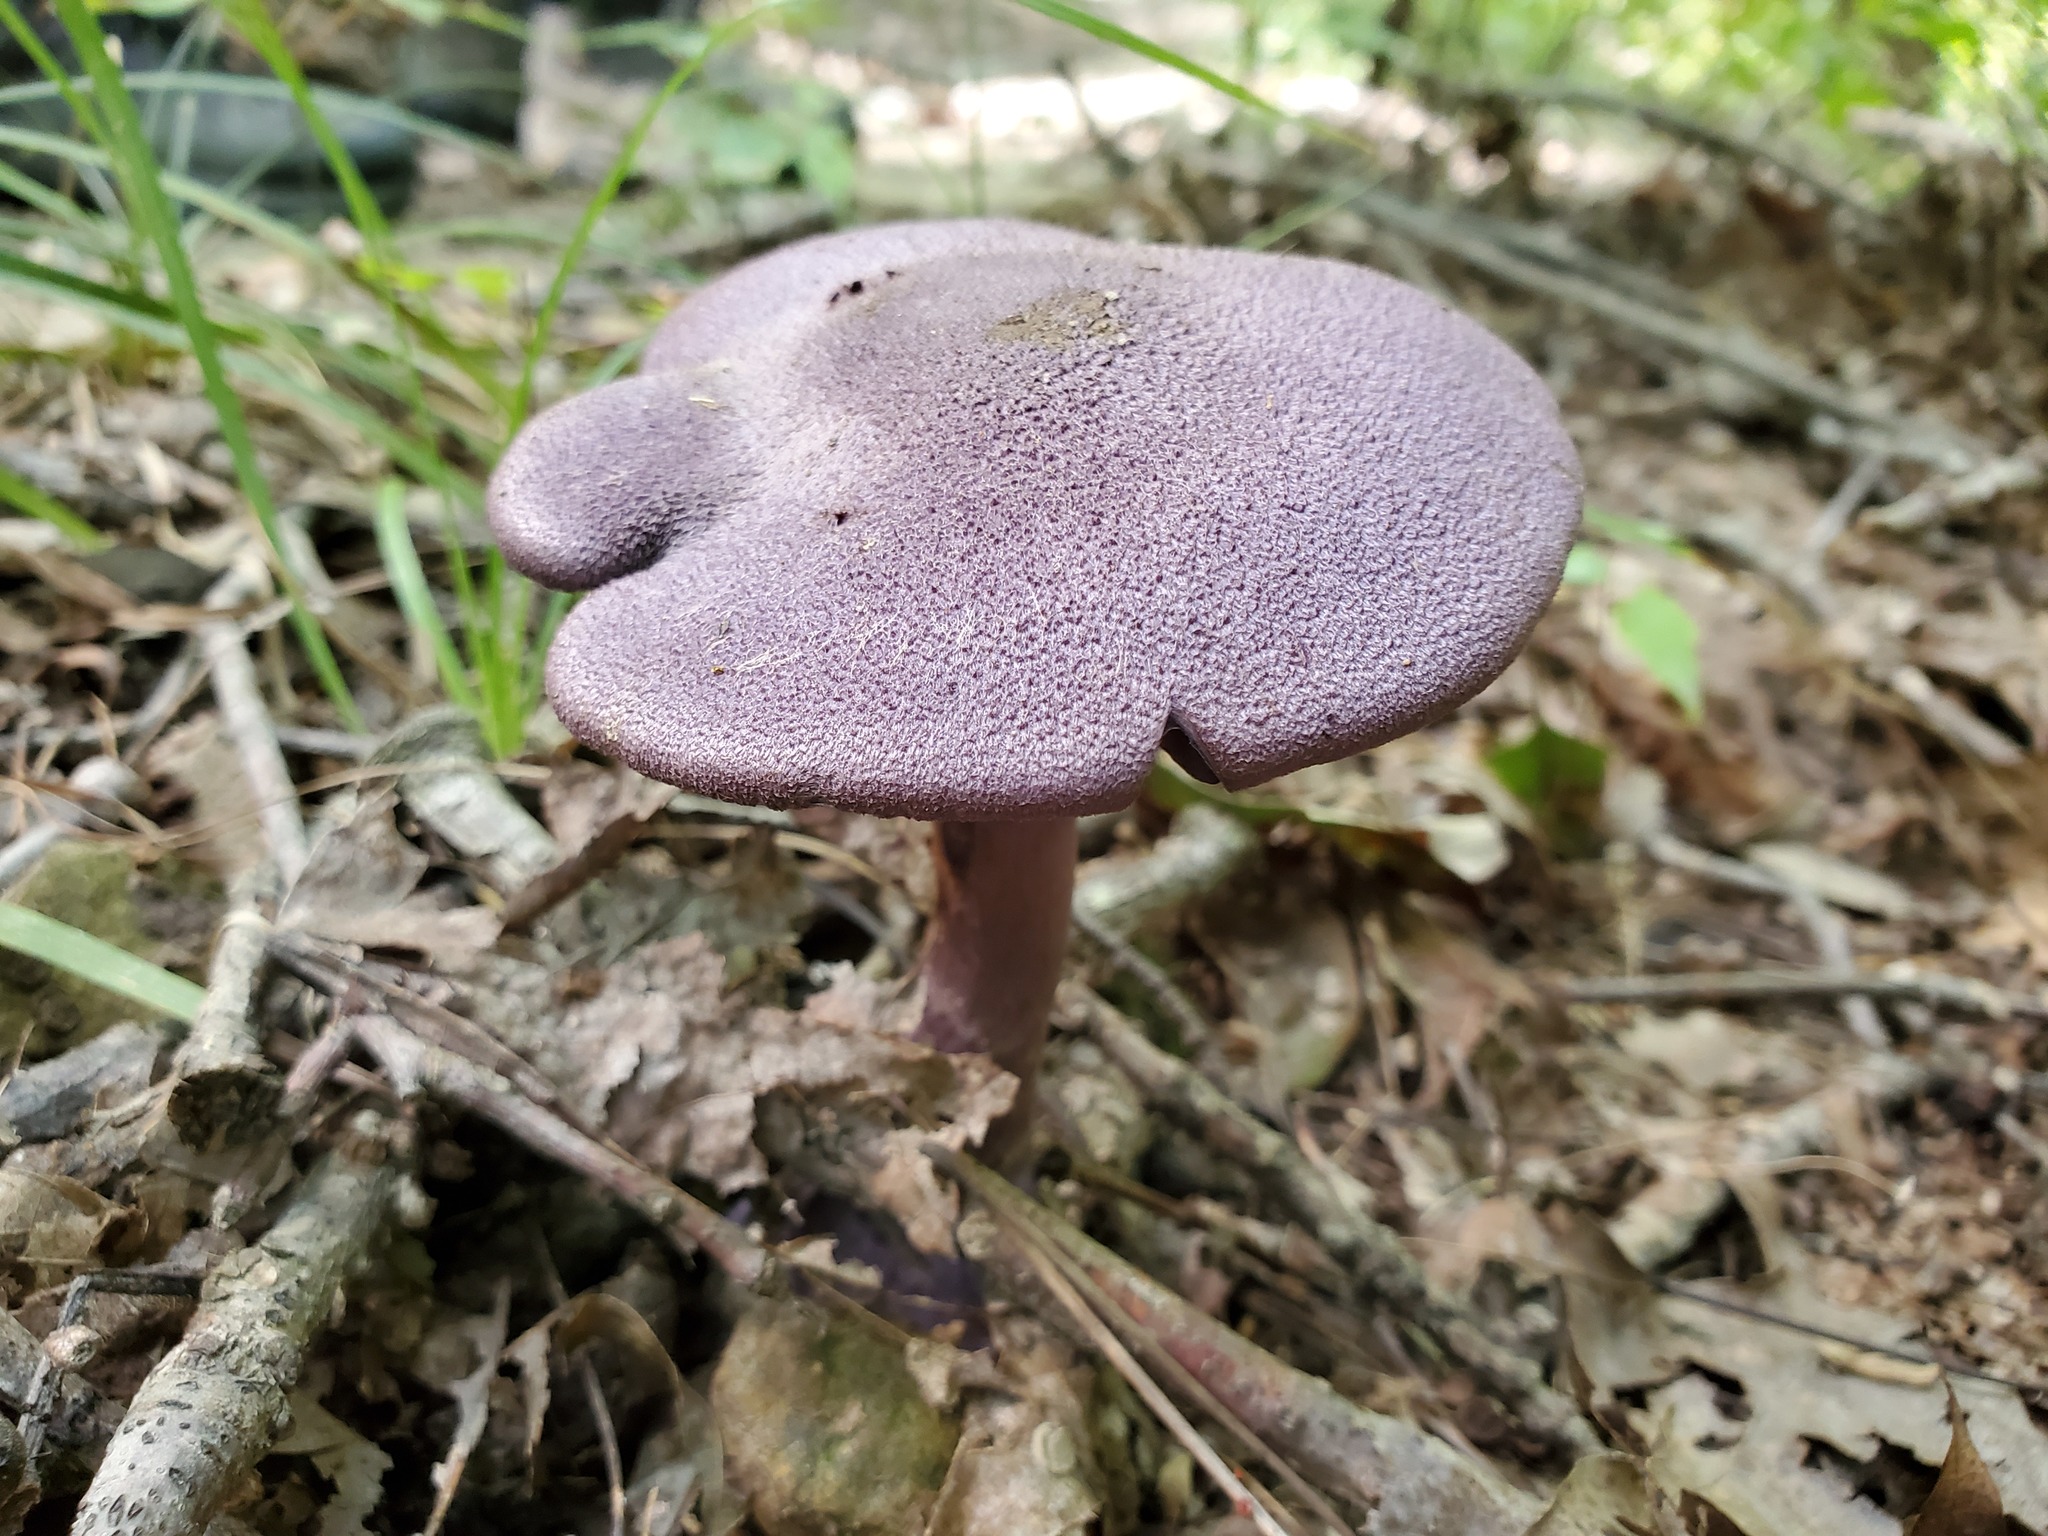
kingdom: Fungi
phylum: Basidiomycota
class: Agaricomycetes
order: Agaricales
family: Cortinariaceae
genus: Cortinarius
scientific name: Cortinarius violaceus
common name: Violet webcap
